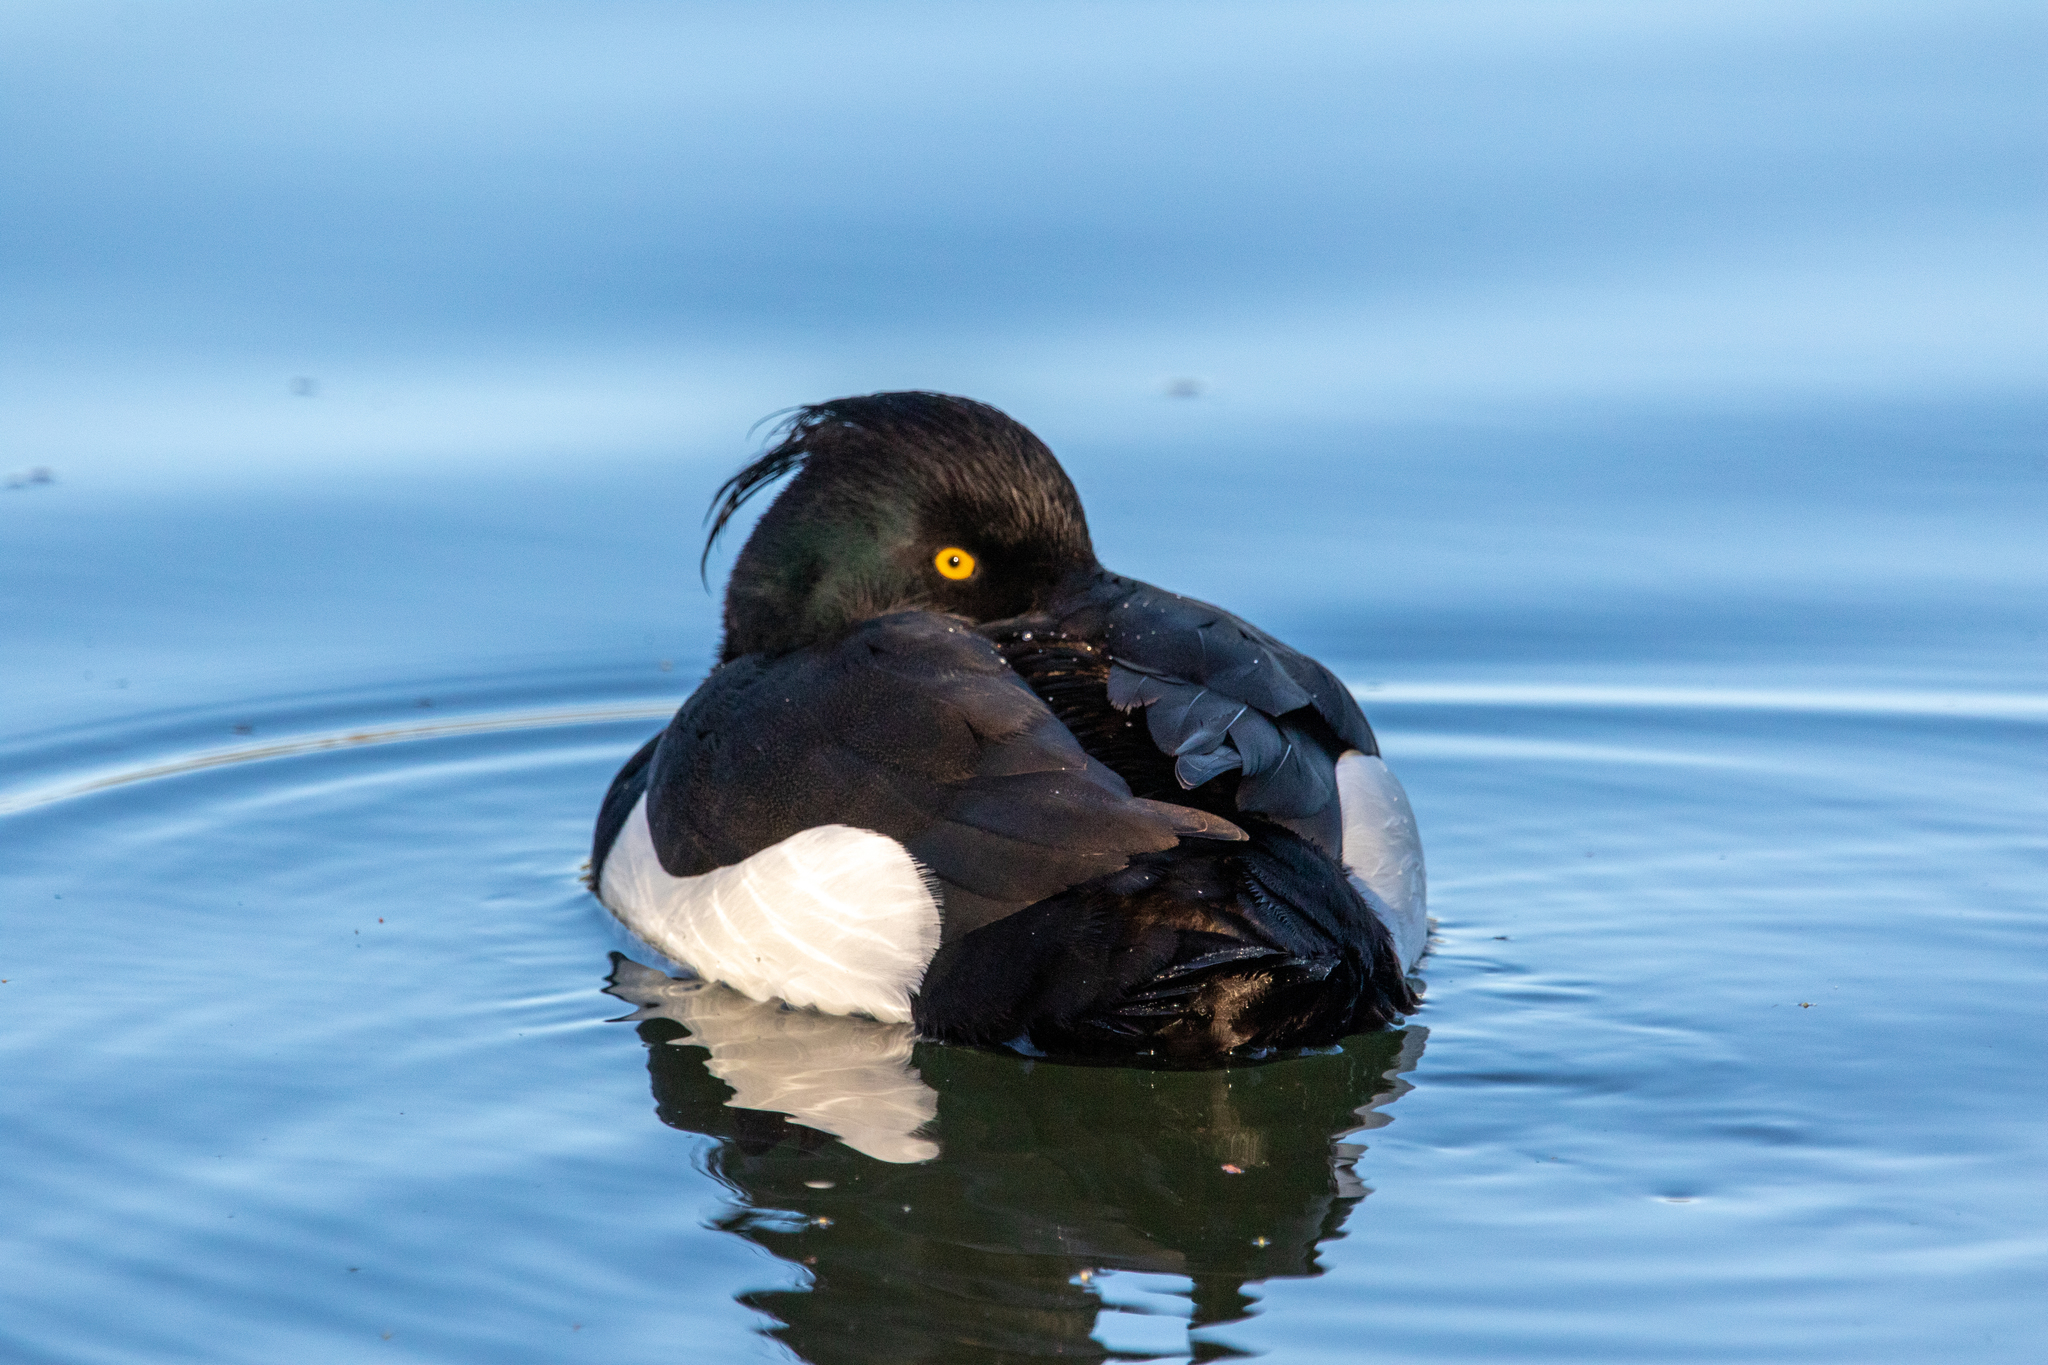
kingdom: Animalia
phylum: Chordata
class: Aves
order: Anseriformes
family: Anatidae
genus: Aythya
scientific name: Aythya fuligula
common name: Tufted duck
